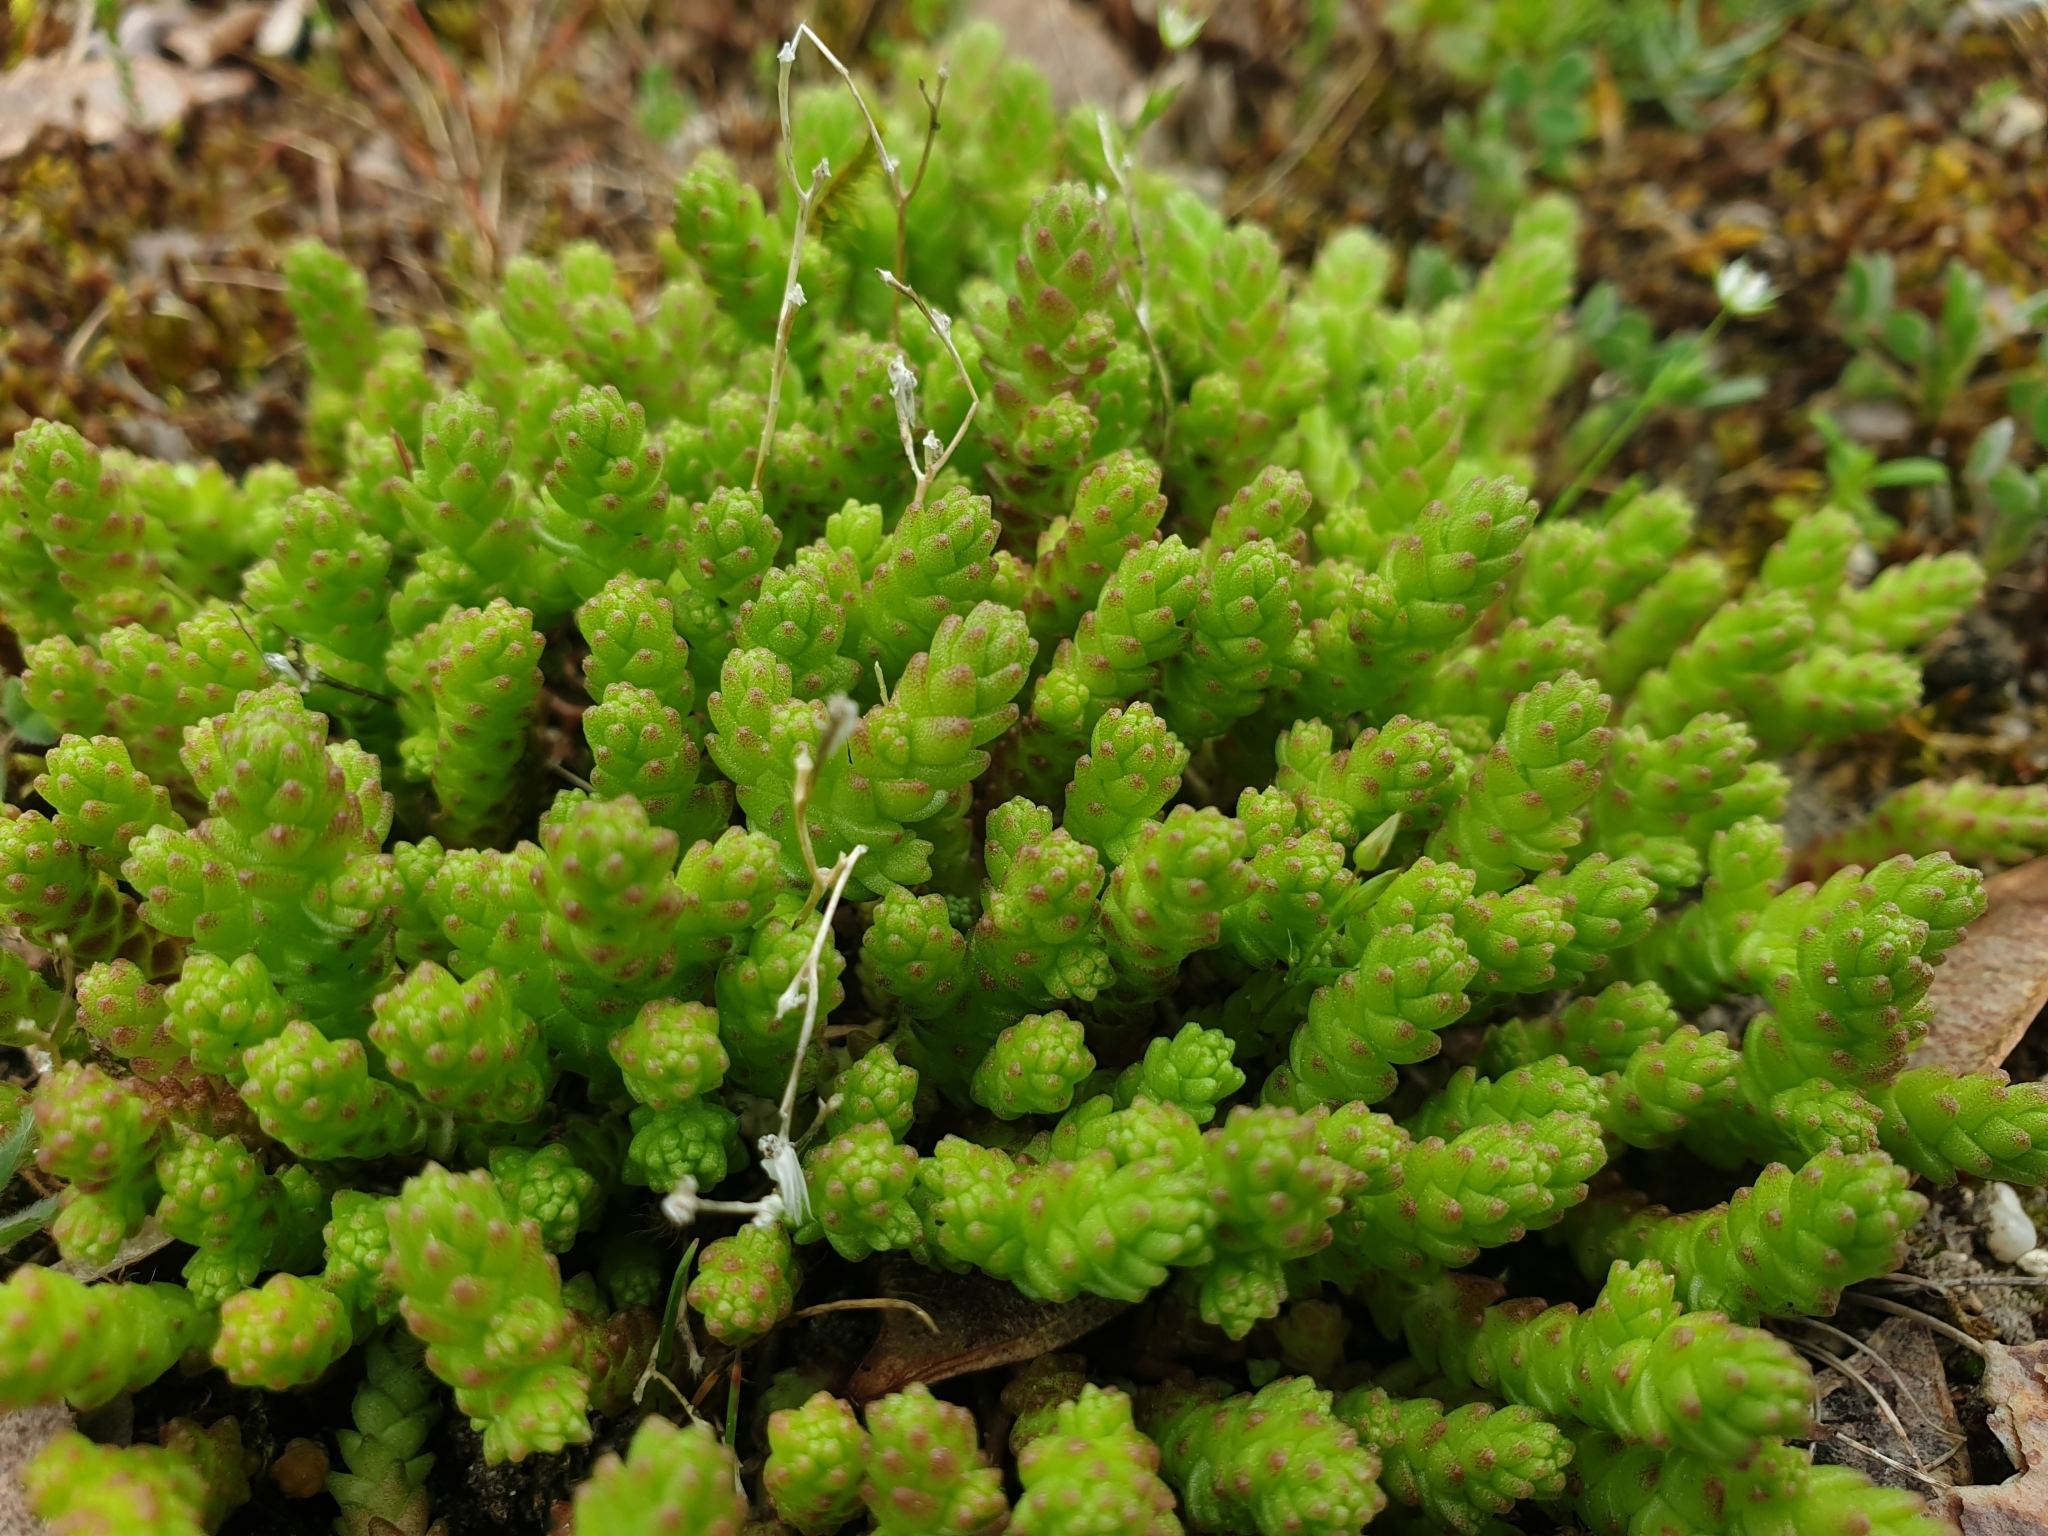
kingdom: Plantae
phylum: Tracheophyta
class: Magnoliopsida
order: Saxifragales
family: Crassulaceae
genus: Sedum
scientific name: Sedum acre
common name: Biting stonecrop
